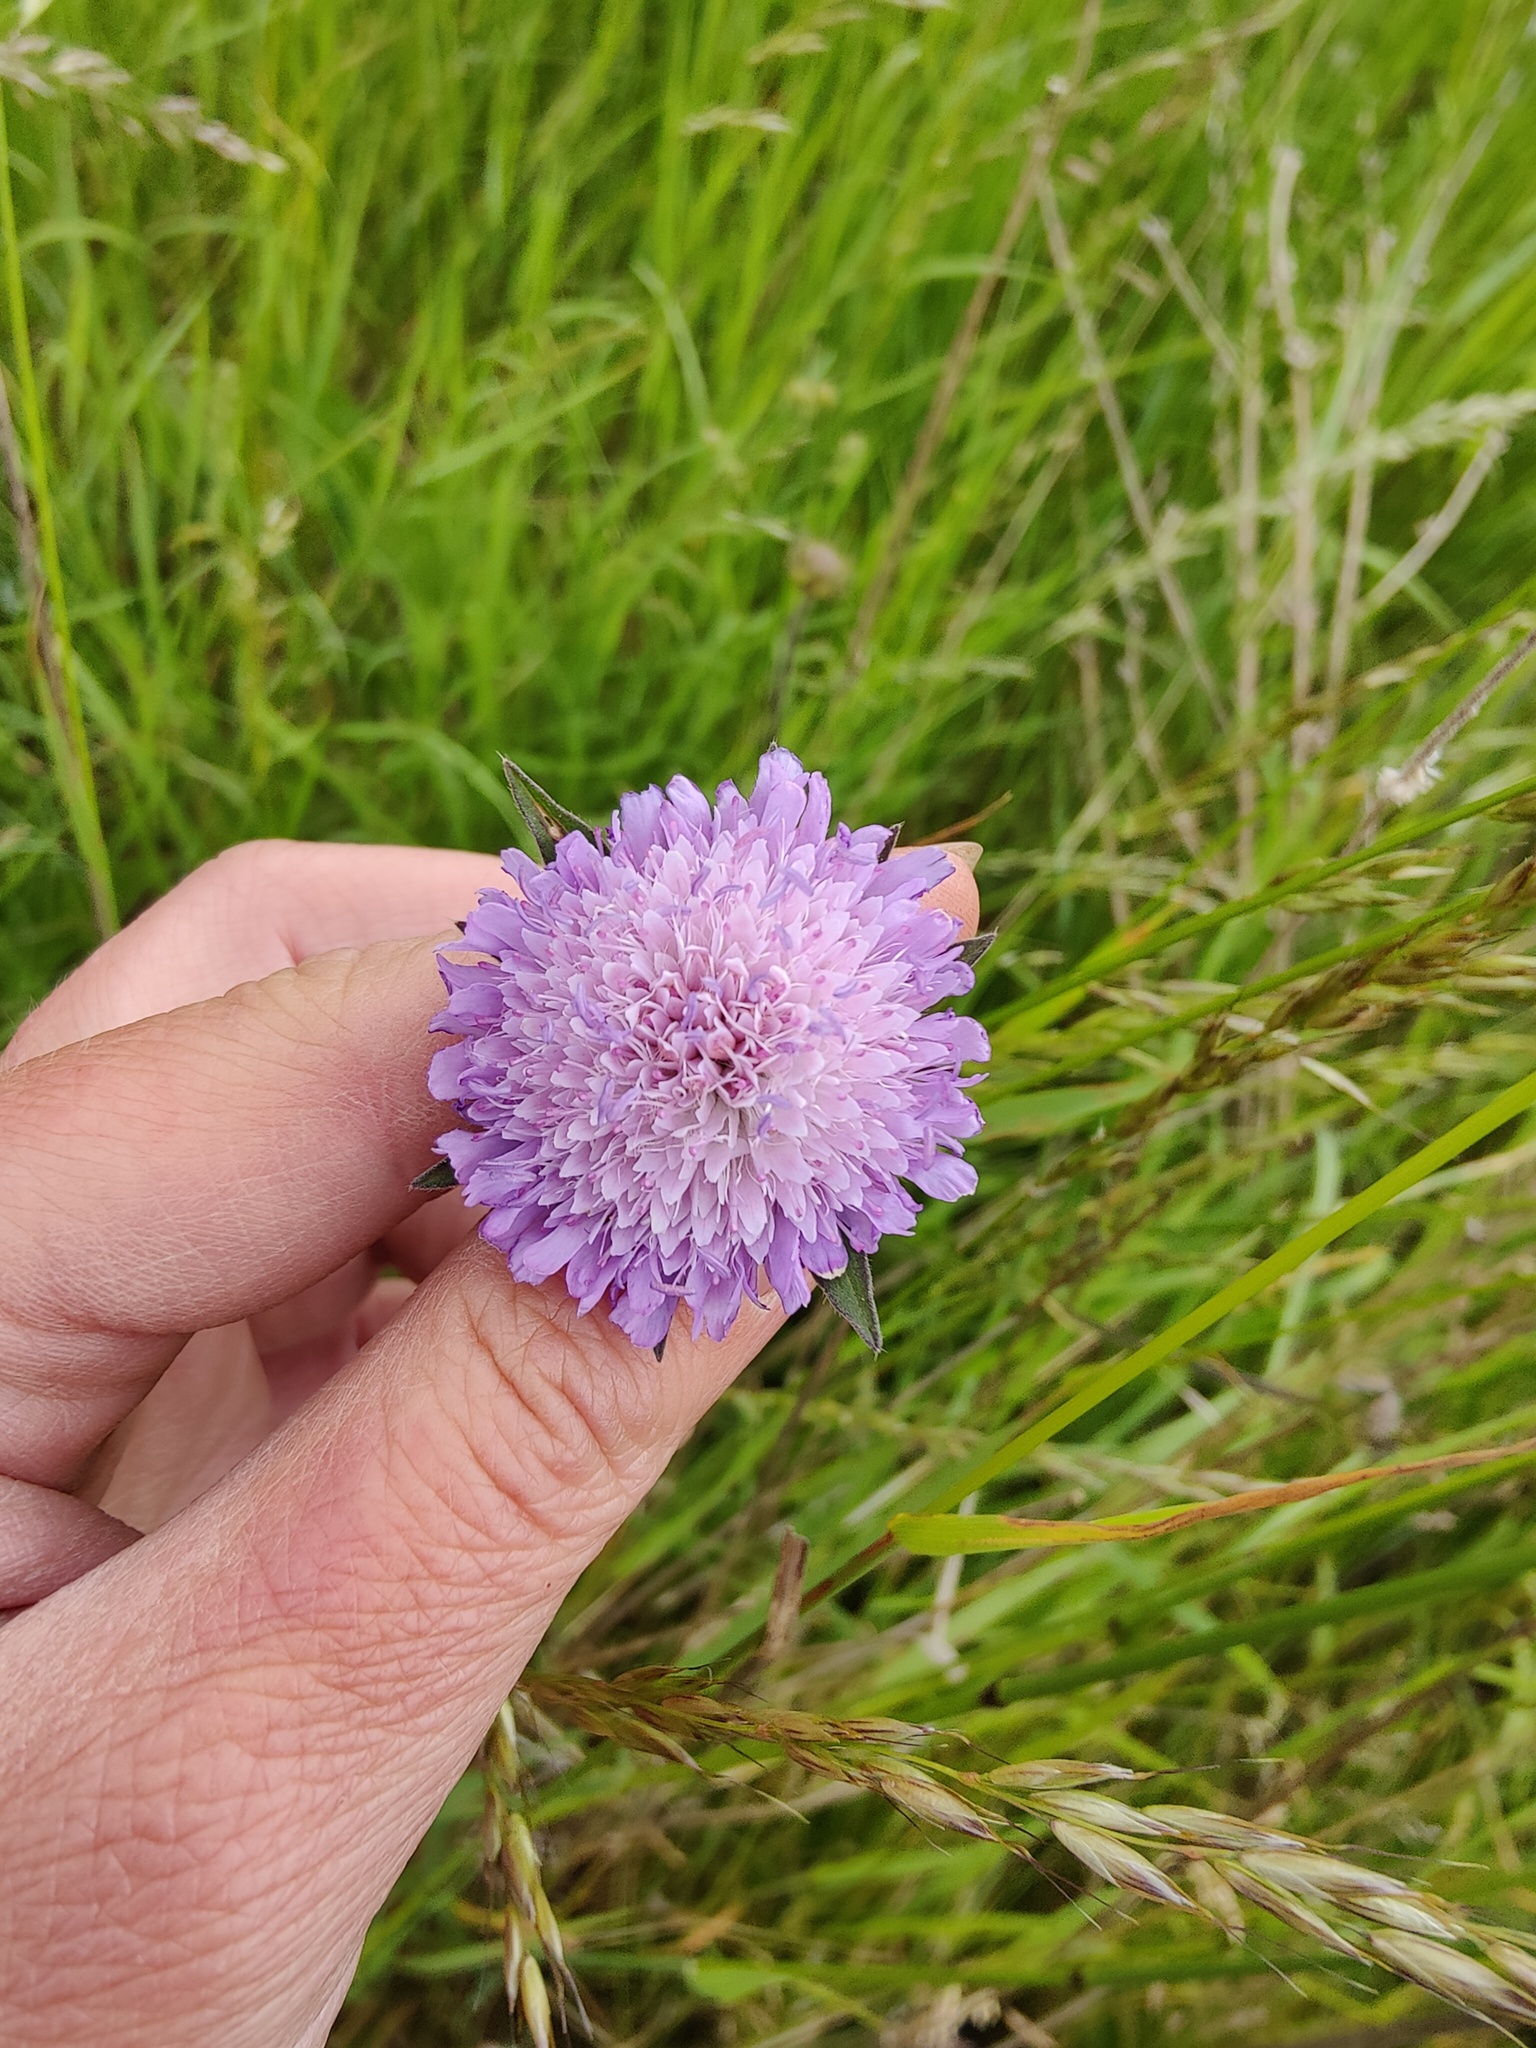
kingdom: Plantae
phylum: Tracheophyta
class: Magnoliopsida
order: Dipsacales
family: Caprifoliaceae
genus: Knautia
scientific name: Knautia arvensis
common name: Field scabiosa
